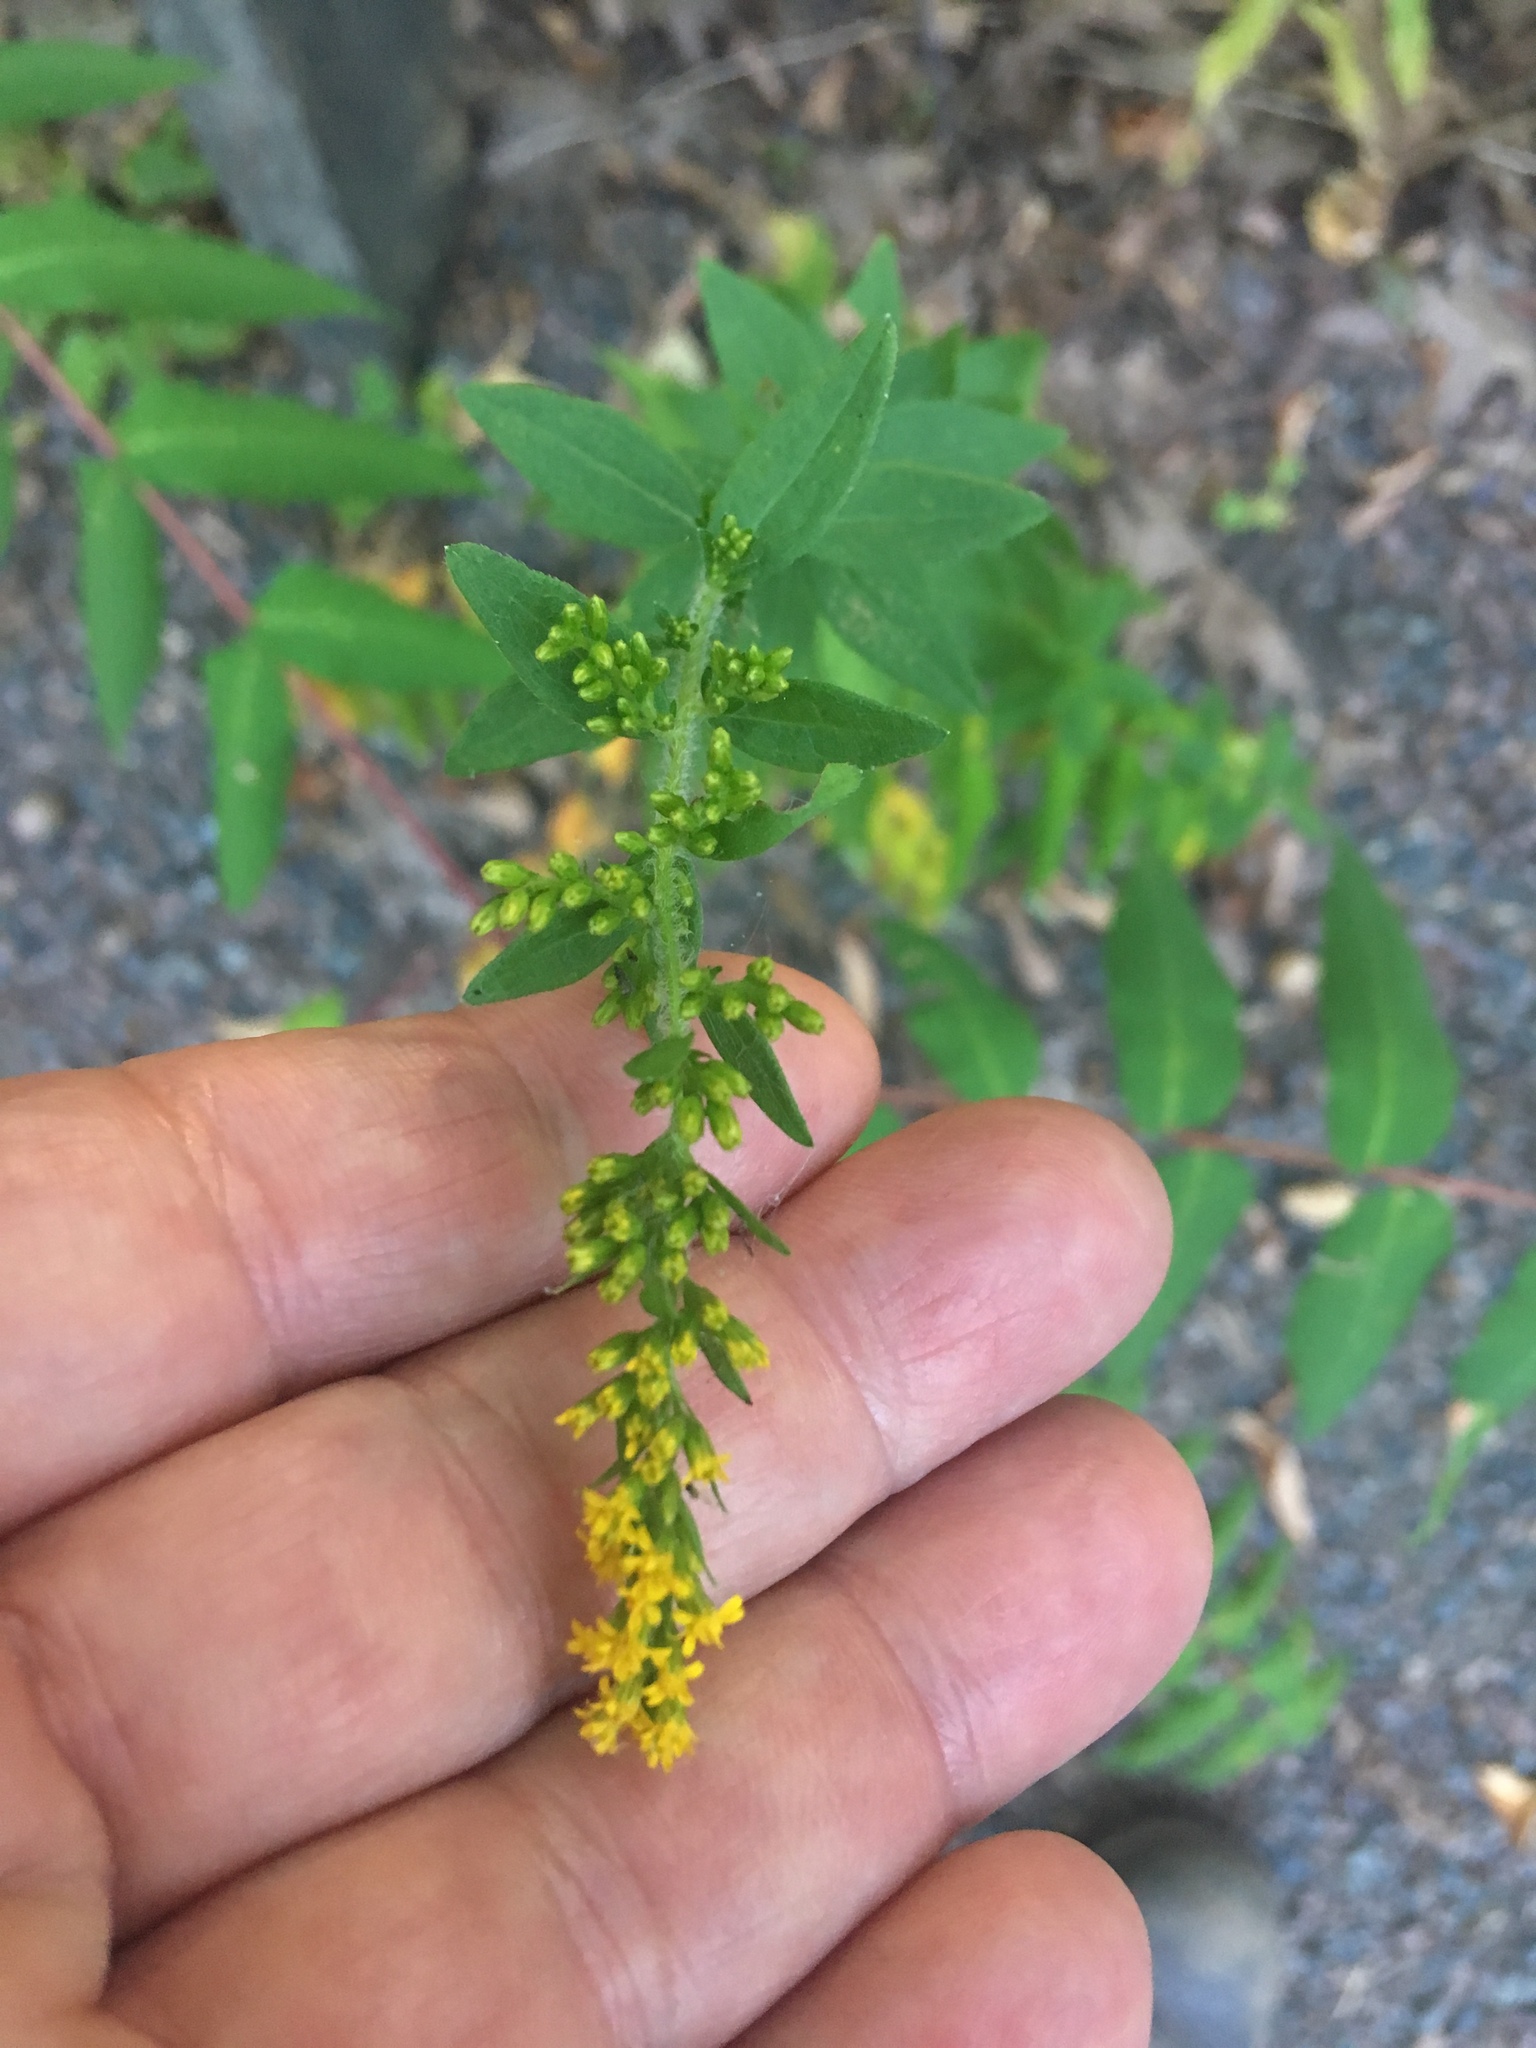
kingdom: Plantae
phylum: Tracheophyta
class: Magnoliopsida
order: Asterales
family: Asteraceae
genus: Solidago
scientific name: Solidago rugosa
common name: Rough-stemmed goldenrod
